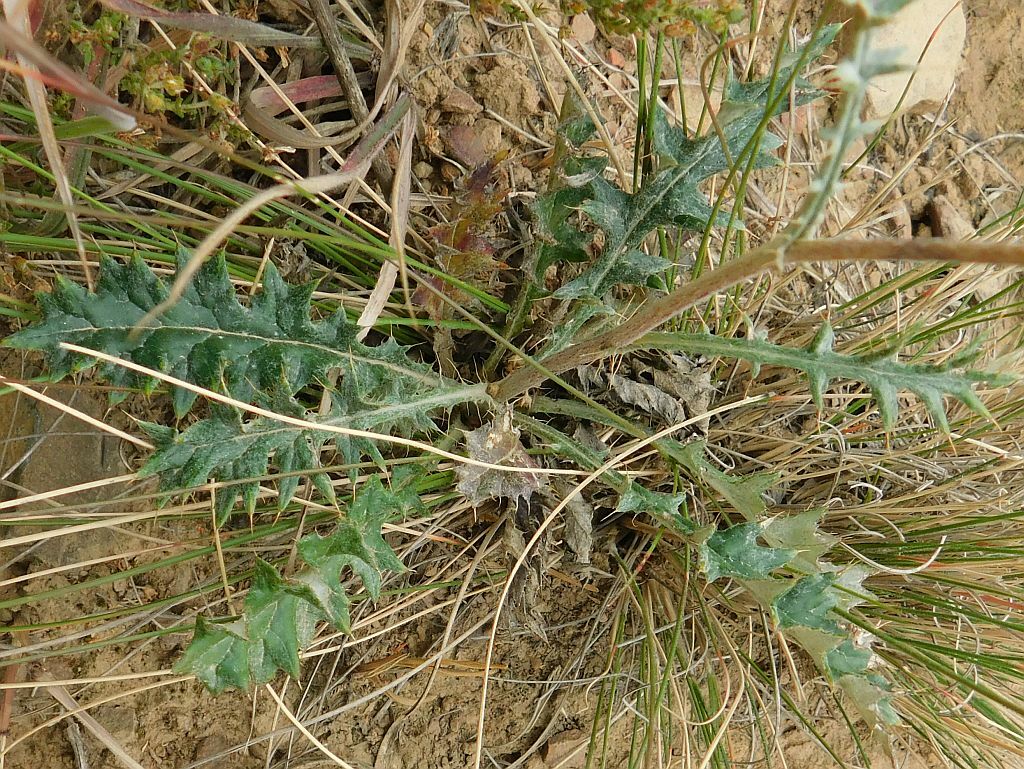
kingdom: Plantae
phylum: Tracheophyta
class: Magnoliopsida
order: Asterales
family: Asteraceae
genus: Berkheya
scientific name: Berkheya heterophylla
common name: Prickly gousblom
